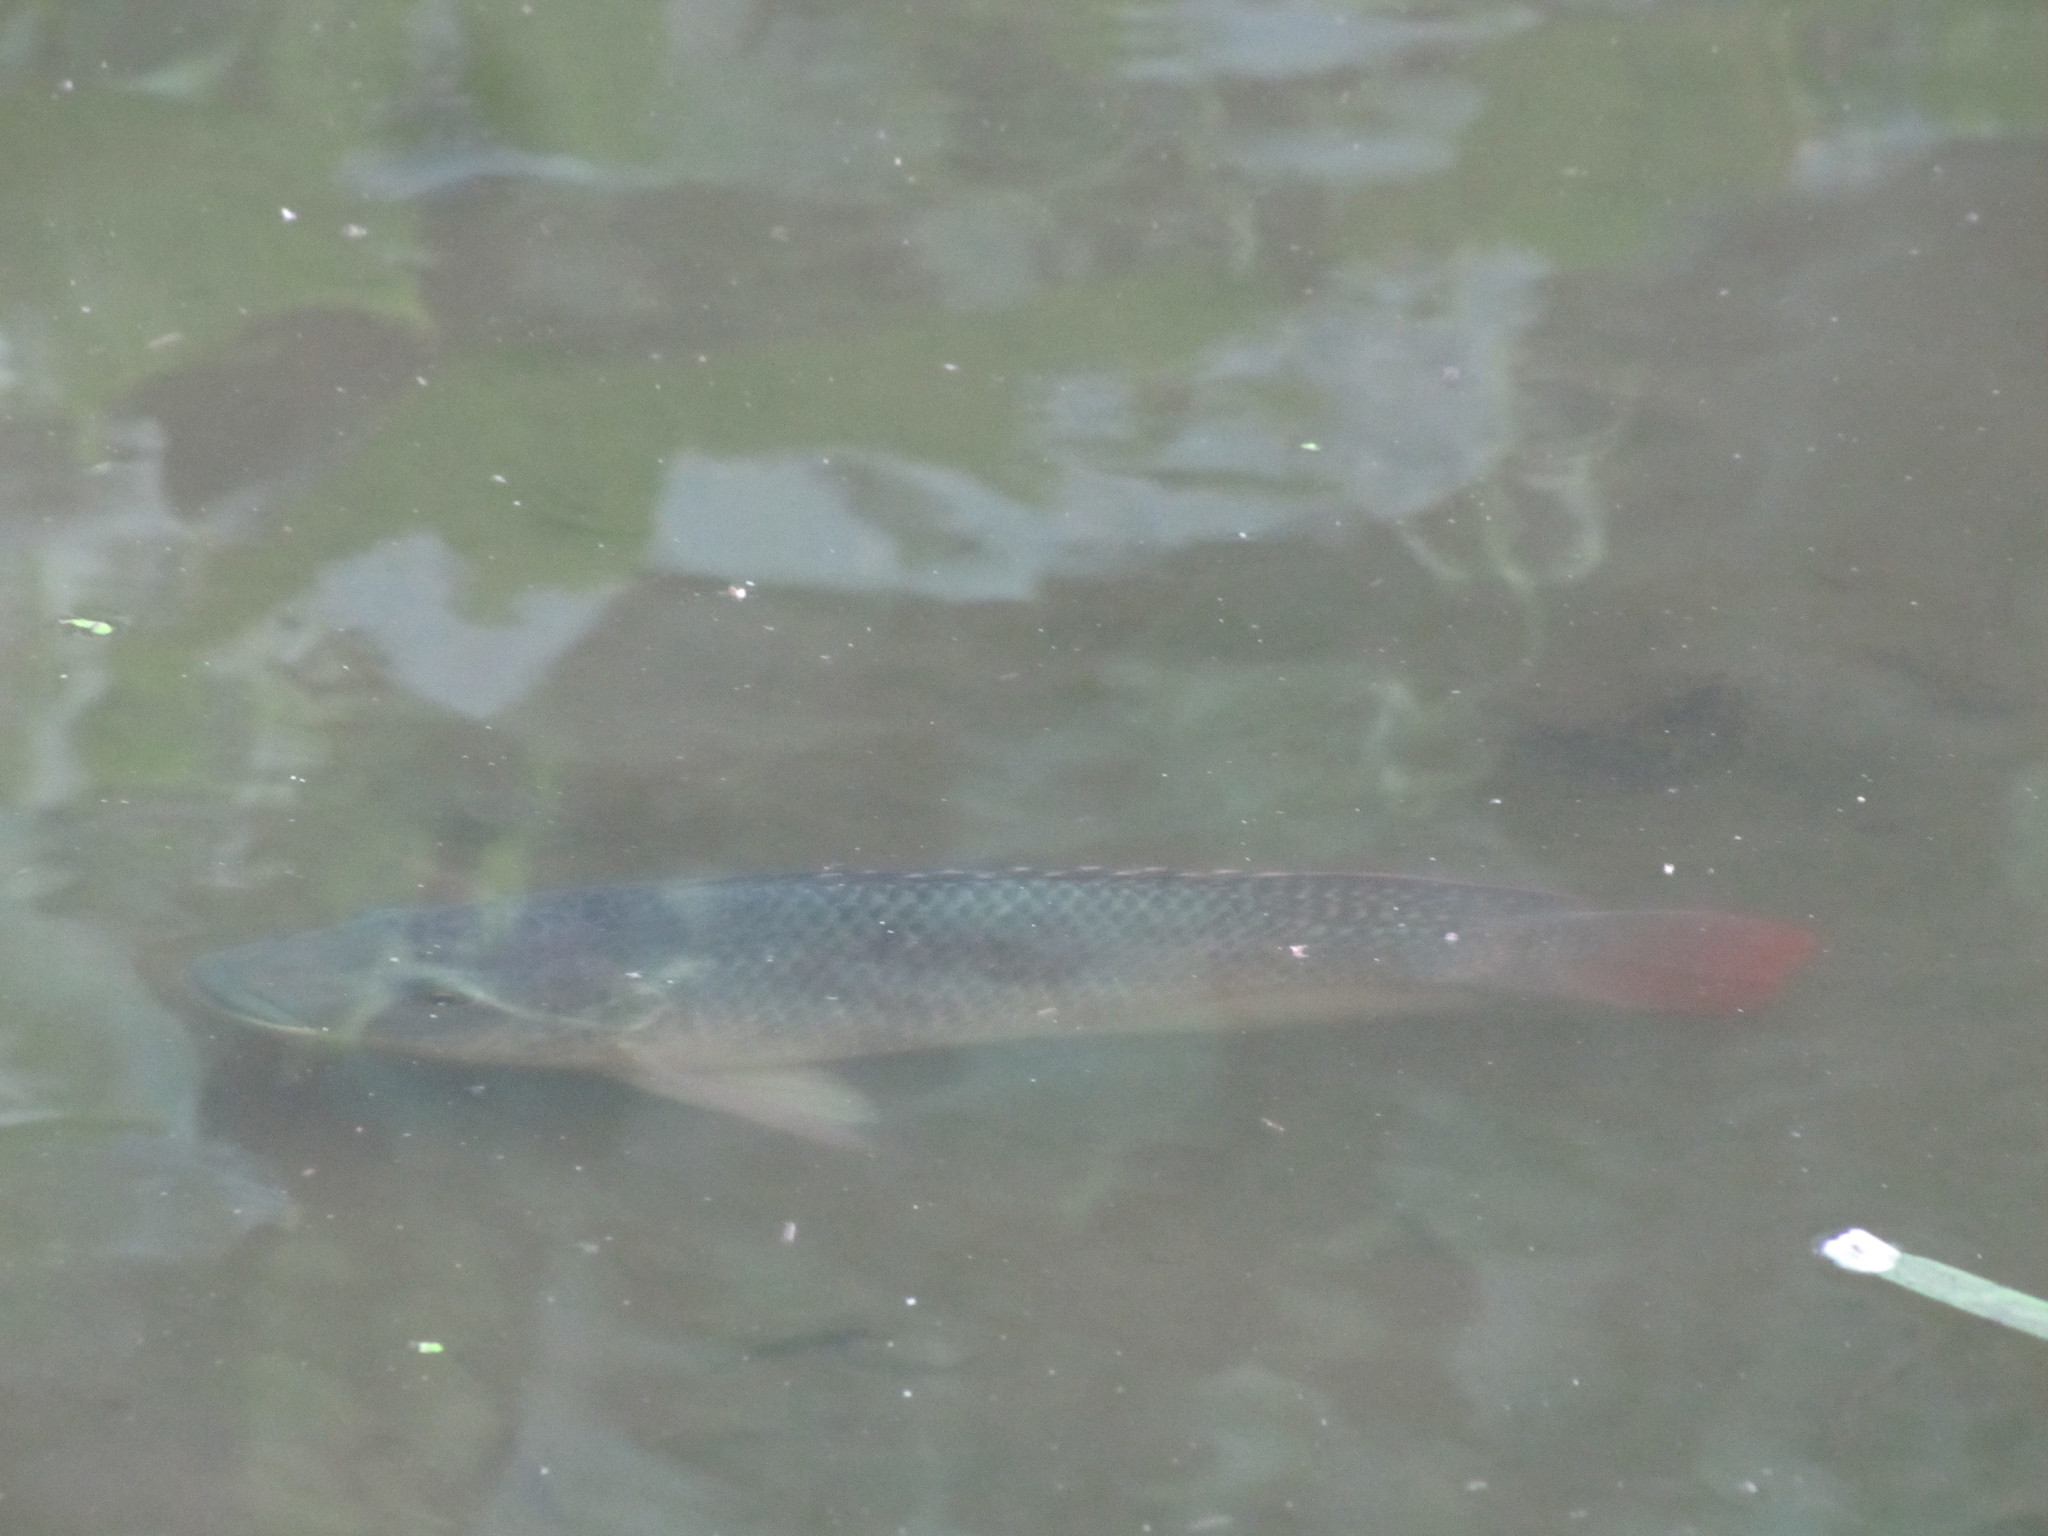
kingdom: Animalia
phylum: Chordata
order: Perciformes
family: Cichlidae
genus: Oreochromis
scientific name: Oreochromis niloticus
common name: Nile tilapia
